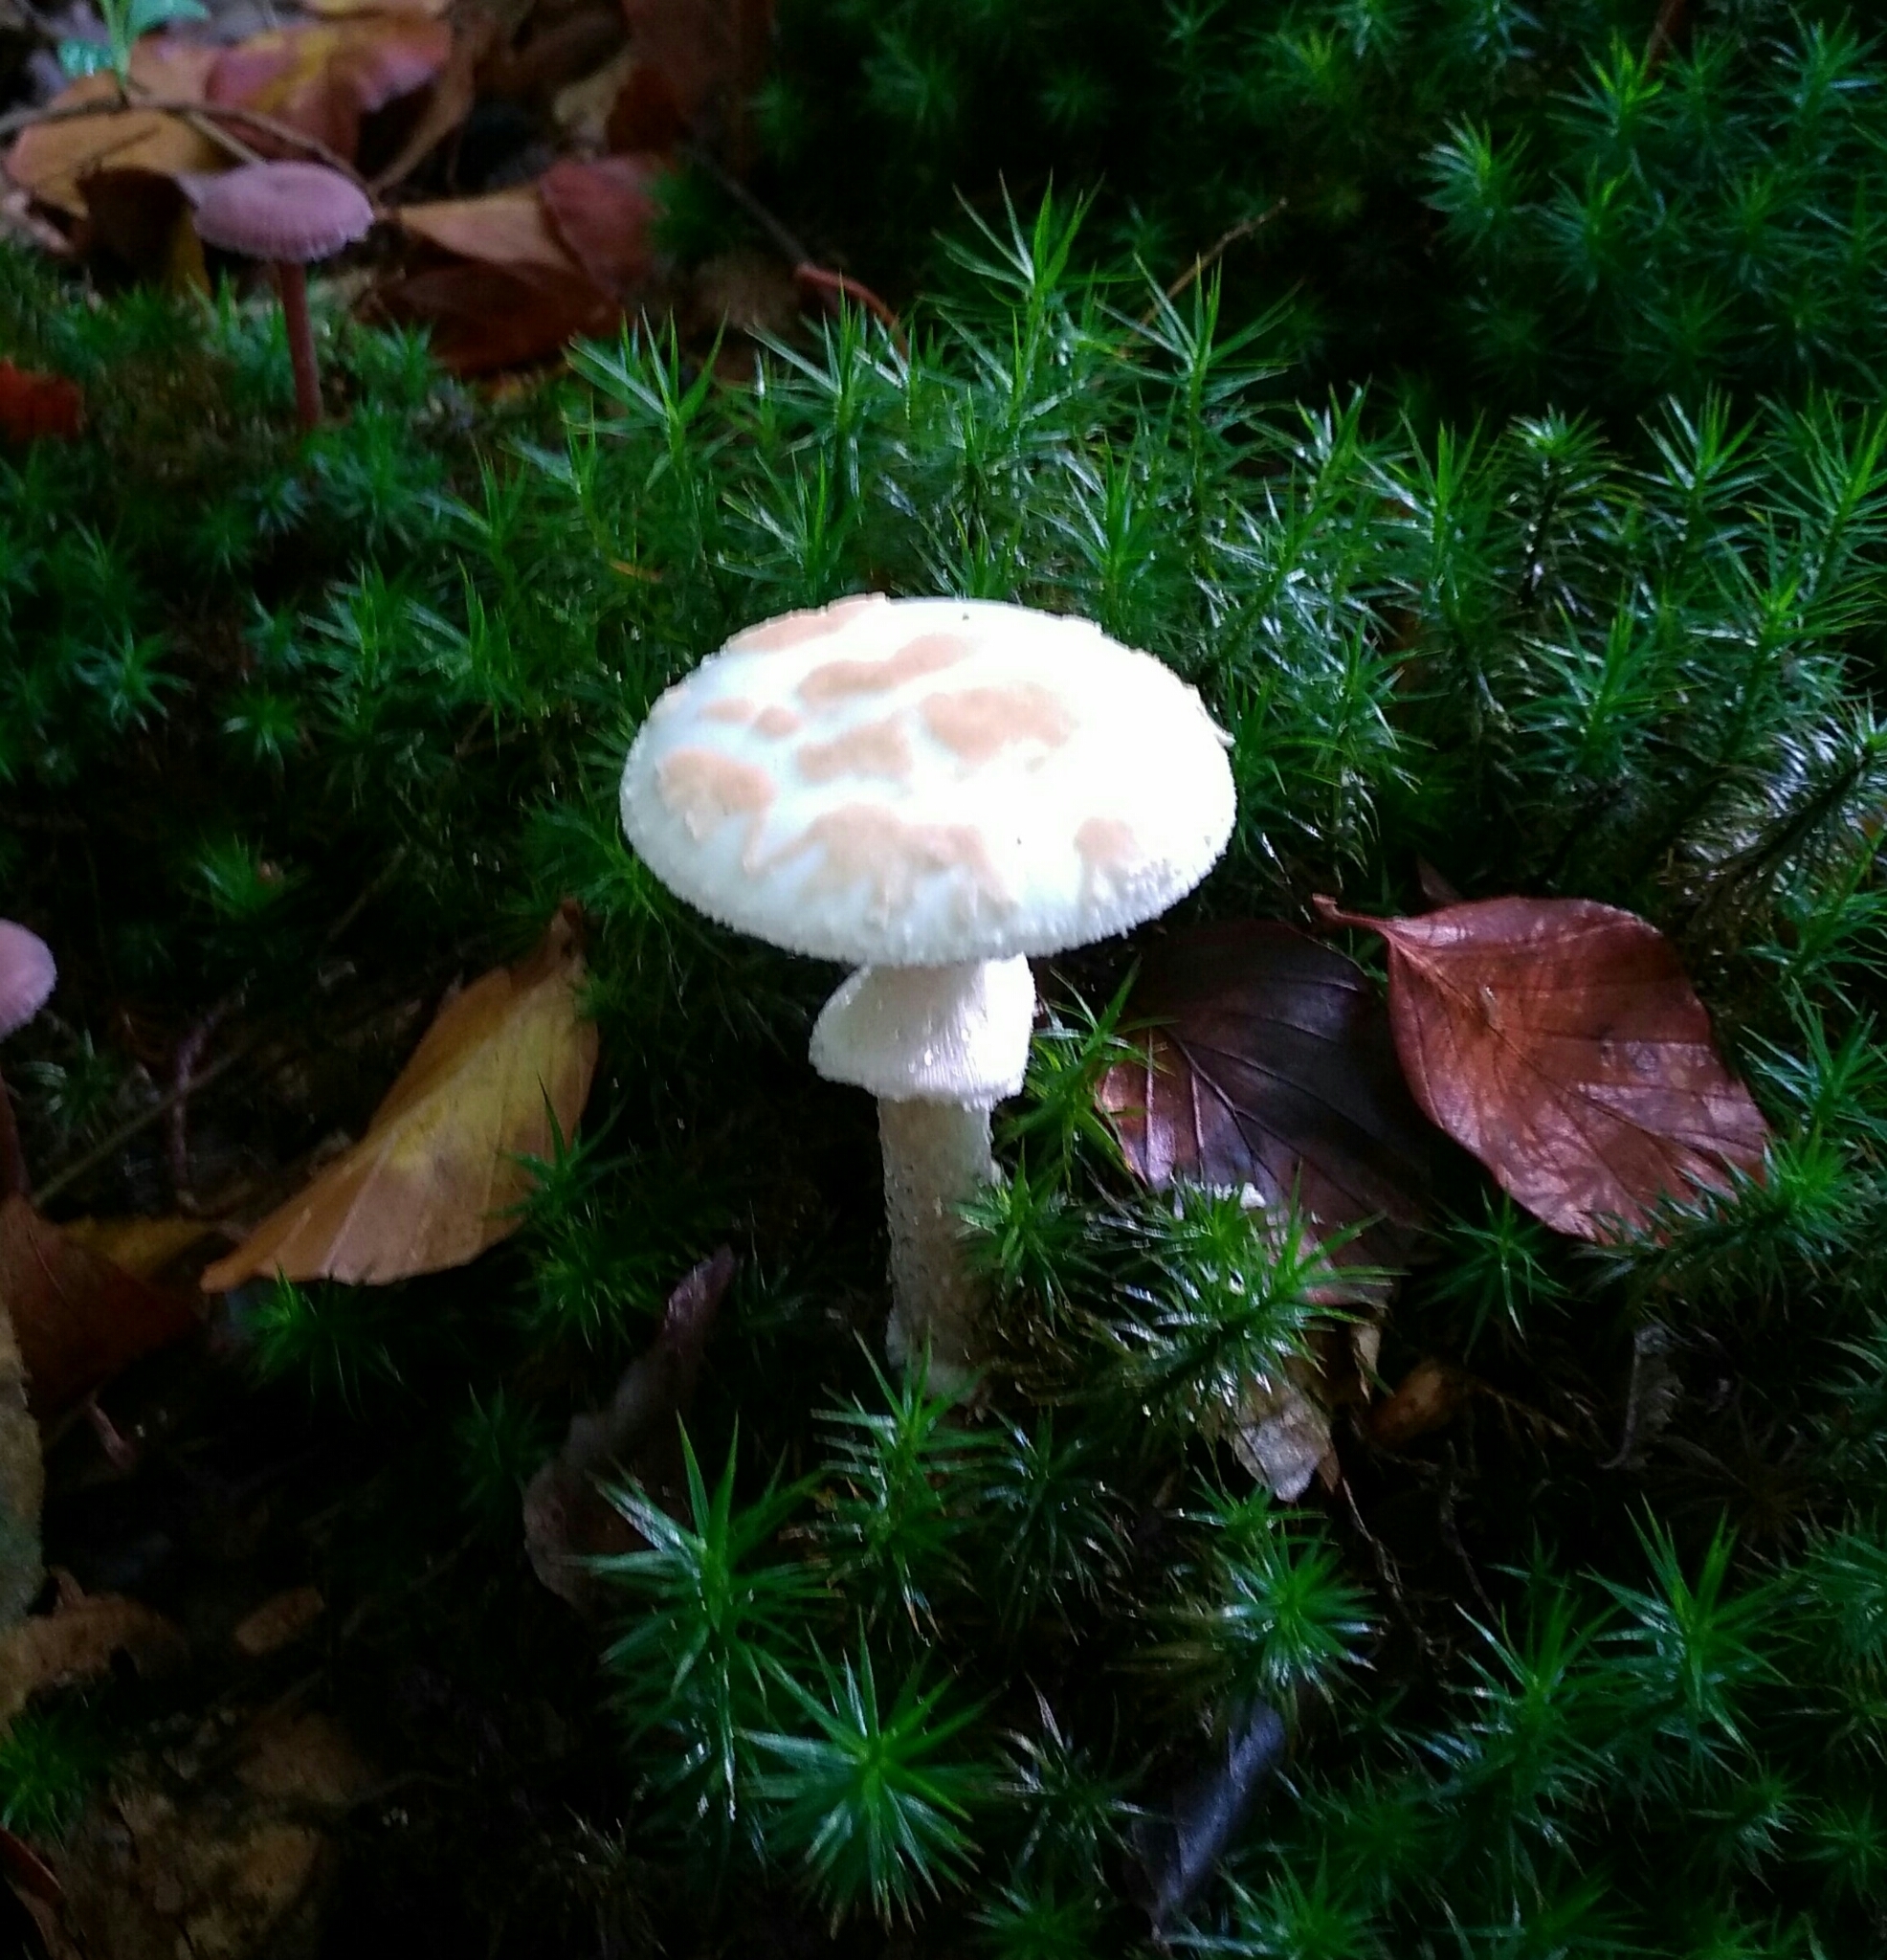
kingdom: Fungi
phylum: Basidiomycota
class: Agaricomycetes
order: Agaricales
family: Amanitaceae
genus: Amanita
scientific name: Amanita citrina
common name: False death-cap
